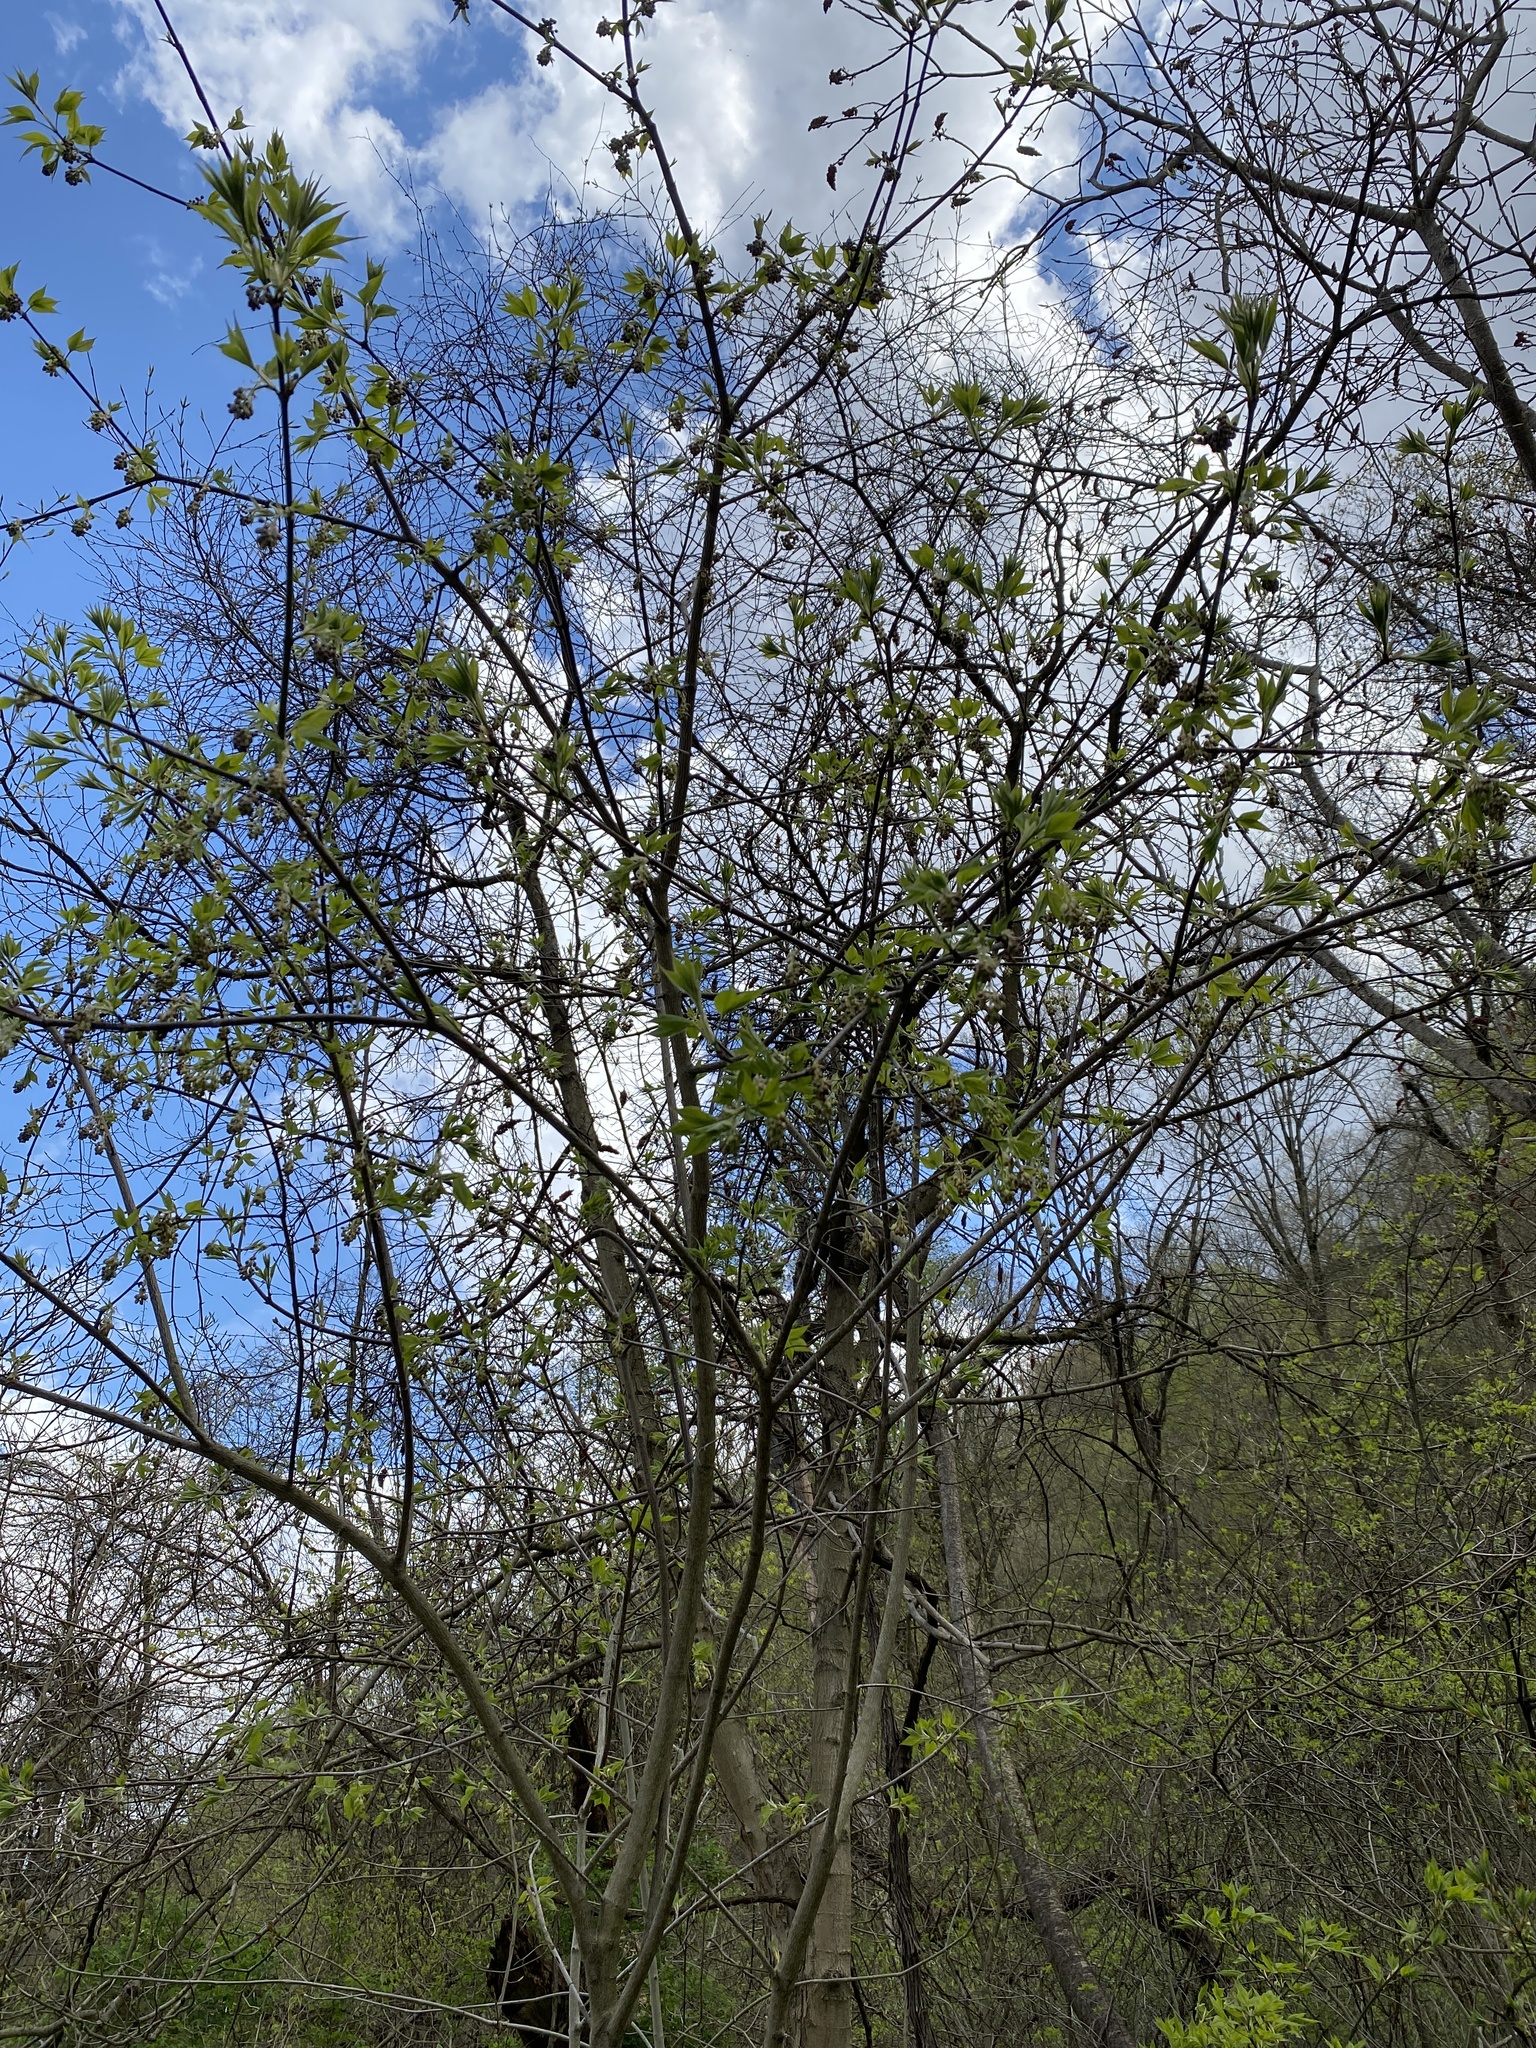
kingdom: Plantae
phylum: Tracheophyta
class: Magnoliopsida
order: Crossosomatales
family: Staphyleaceae
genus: Staphylea
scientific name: Staphylea trifolia
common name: American bladdernut
